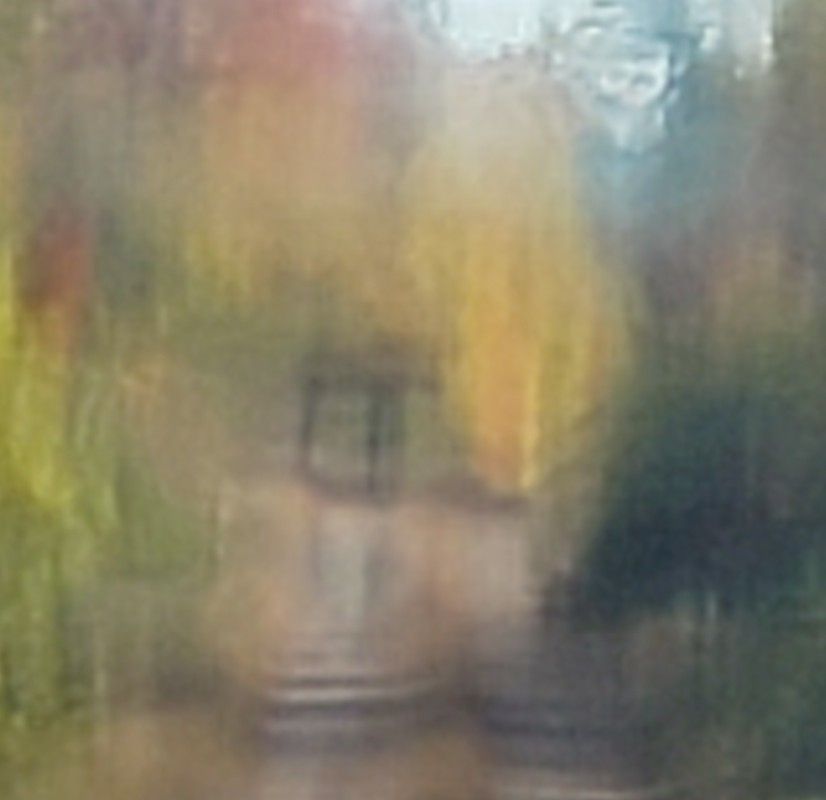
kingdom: Animalia
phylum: Chordata
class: Mammalia
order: Artiodactyla
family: Cervidae
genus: Alces
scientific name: Alces alces
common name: Moose
